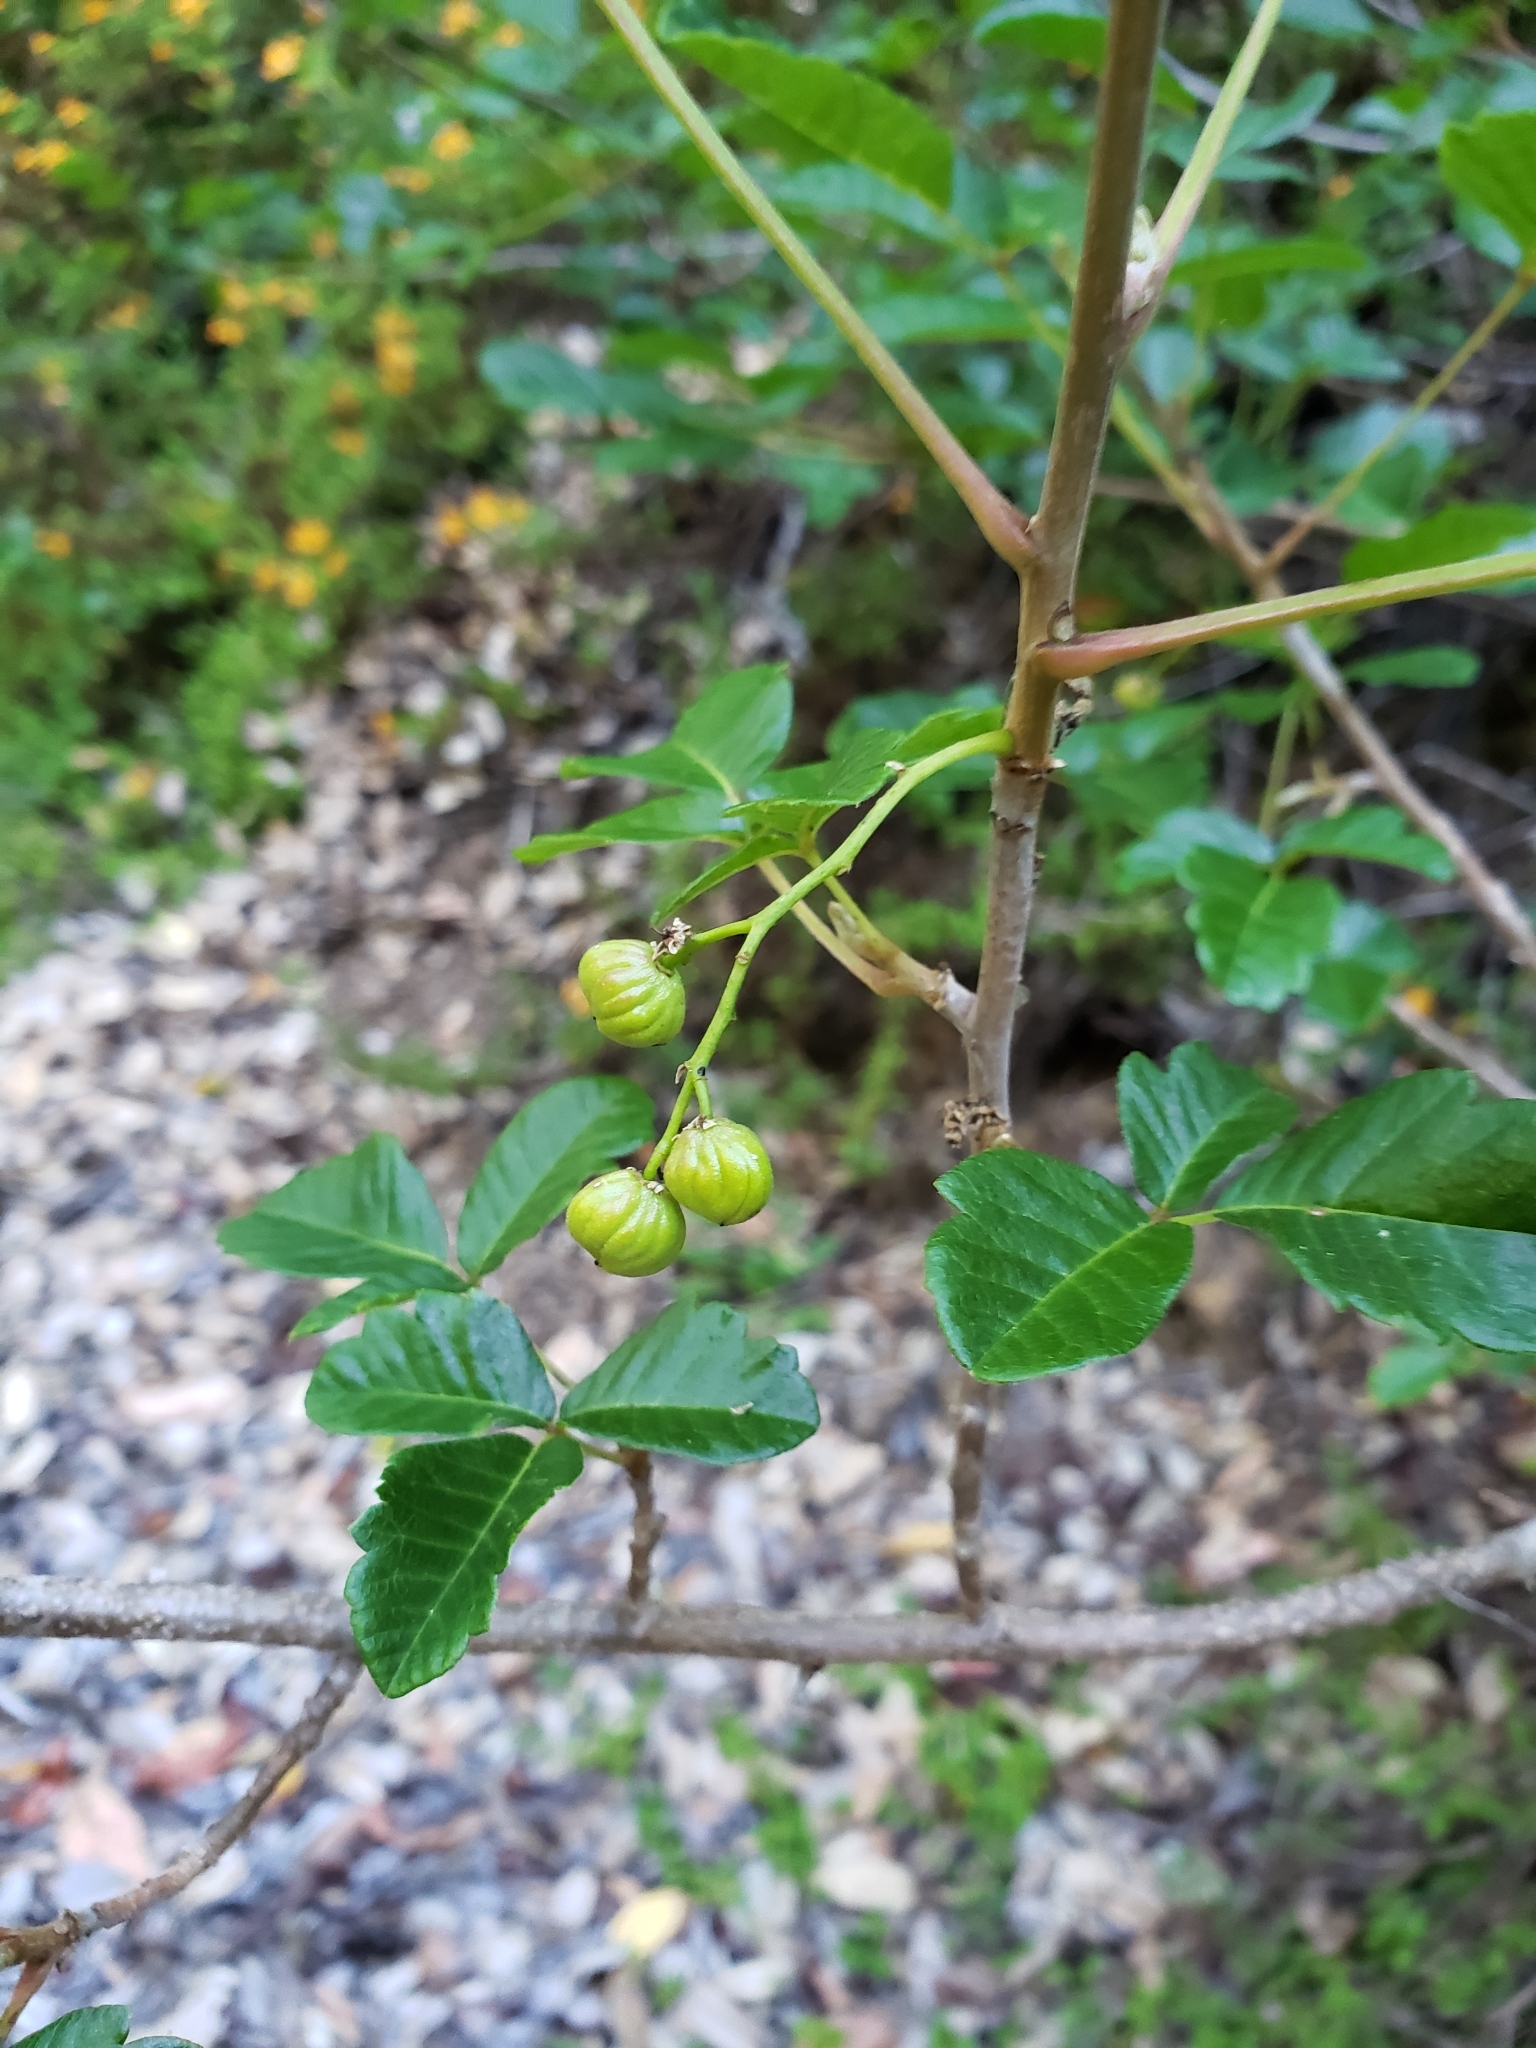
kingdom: Plantae
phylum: Tracheophyta
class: Magnoliopsida
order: Sapindales
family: Anacardiaceae
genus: Toxicodendron
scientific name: Toxicodendron diversilobum
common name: Pacific poison-oak
